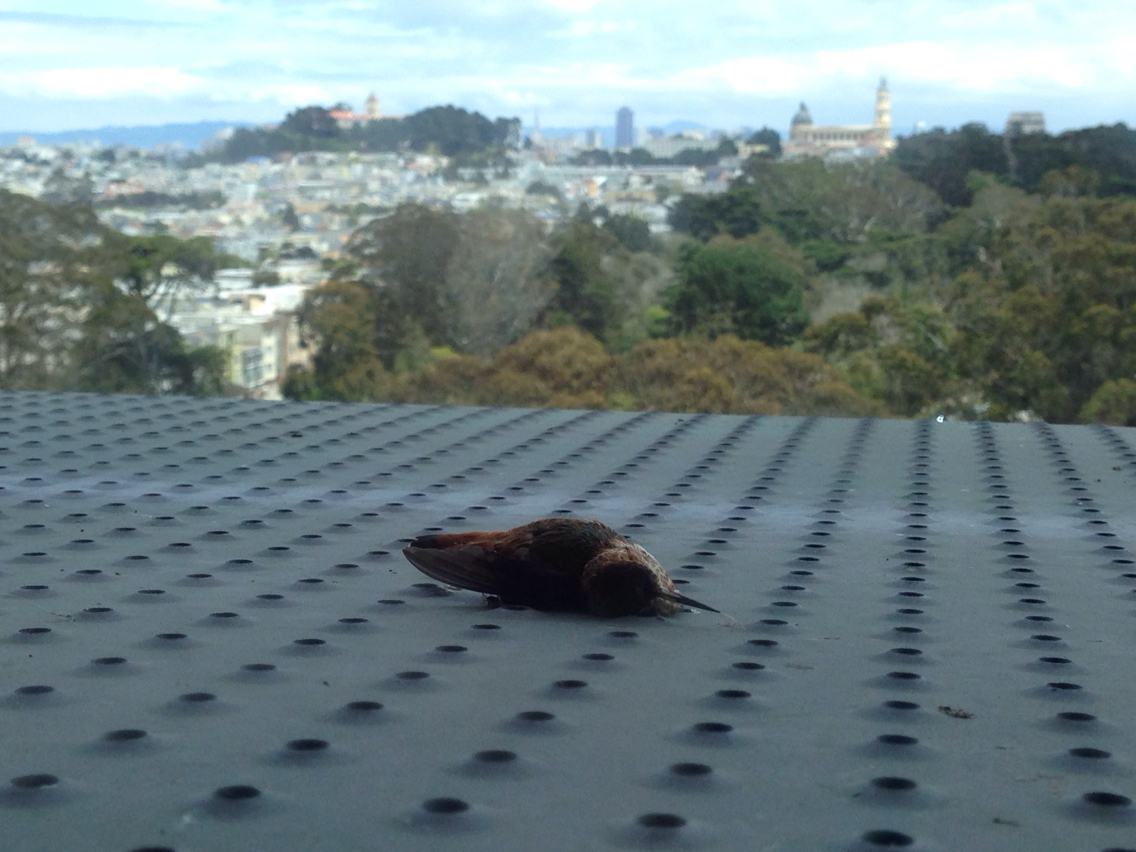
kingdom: Animalia
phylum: Chordata
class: Aves
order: Apodiformes
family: Trochilidae
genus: Selasphorus
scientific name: Selasphorus sasin
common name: Allen's hummingbird
